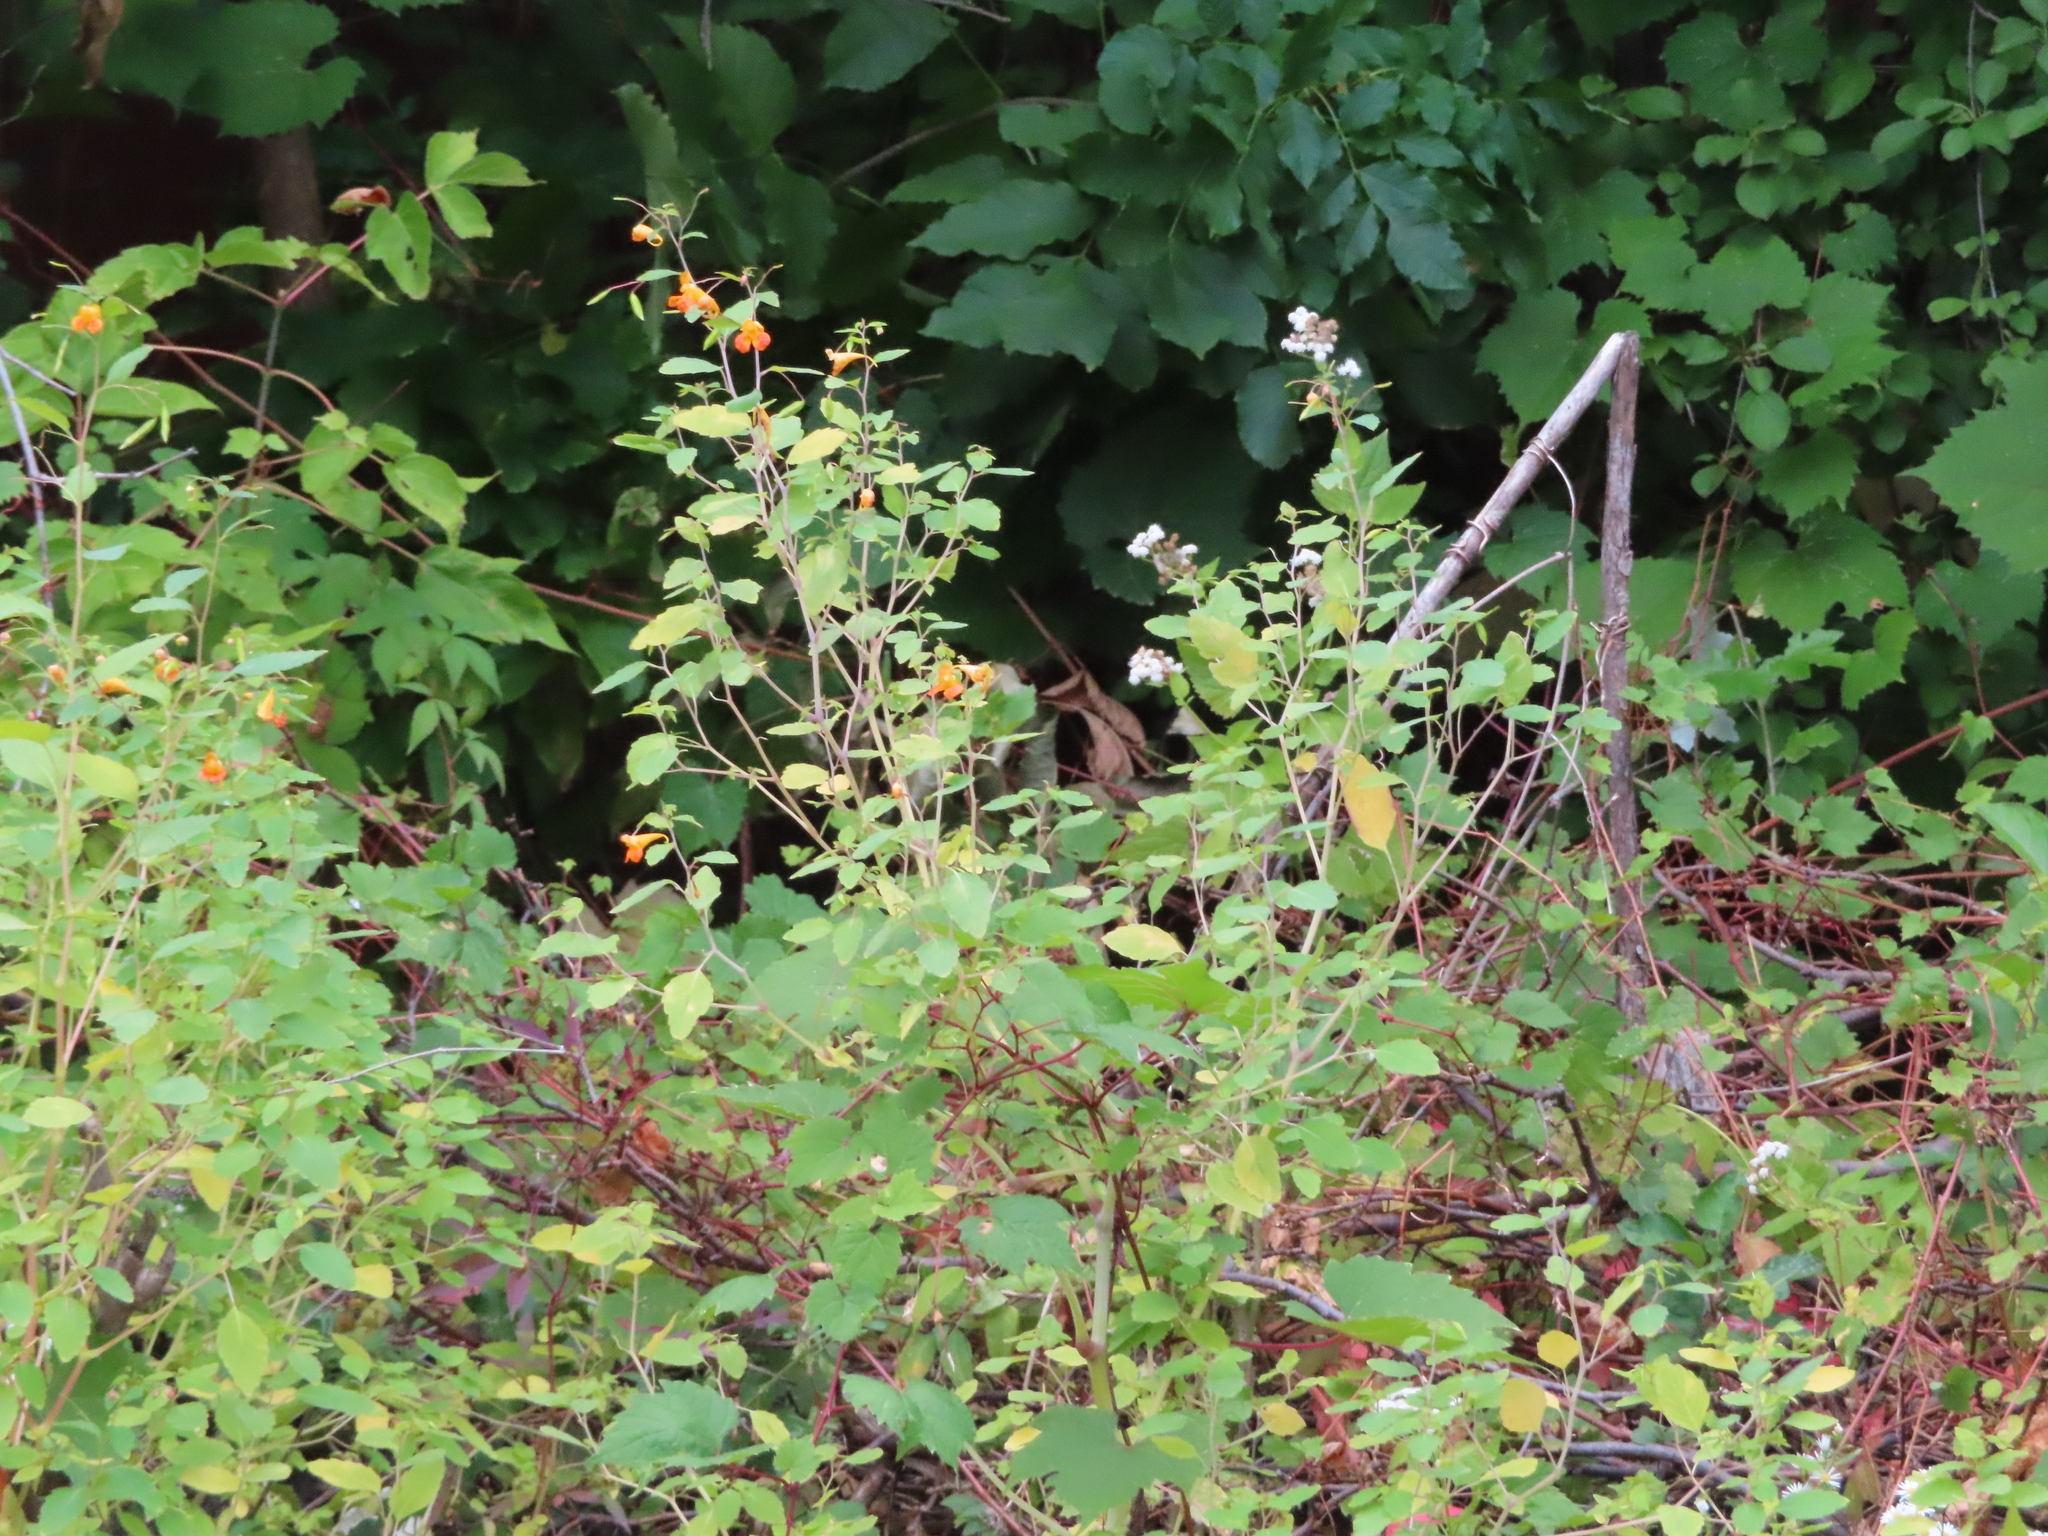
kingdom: Plantae
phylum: Tracheophyta
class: Magnoliopsida
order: Ericales
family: Balsaminaceae
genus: Impatiens
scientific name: Impatiens capensis
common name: Orange balsam
